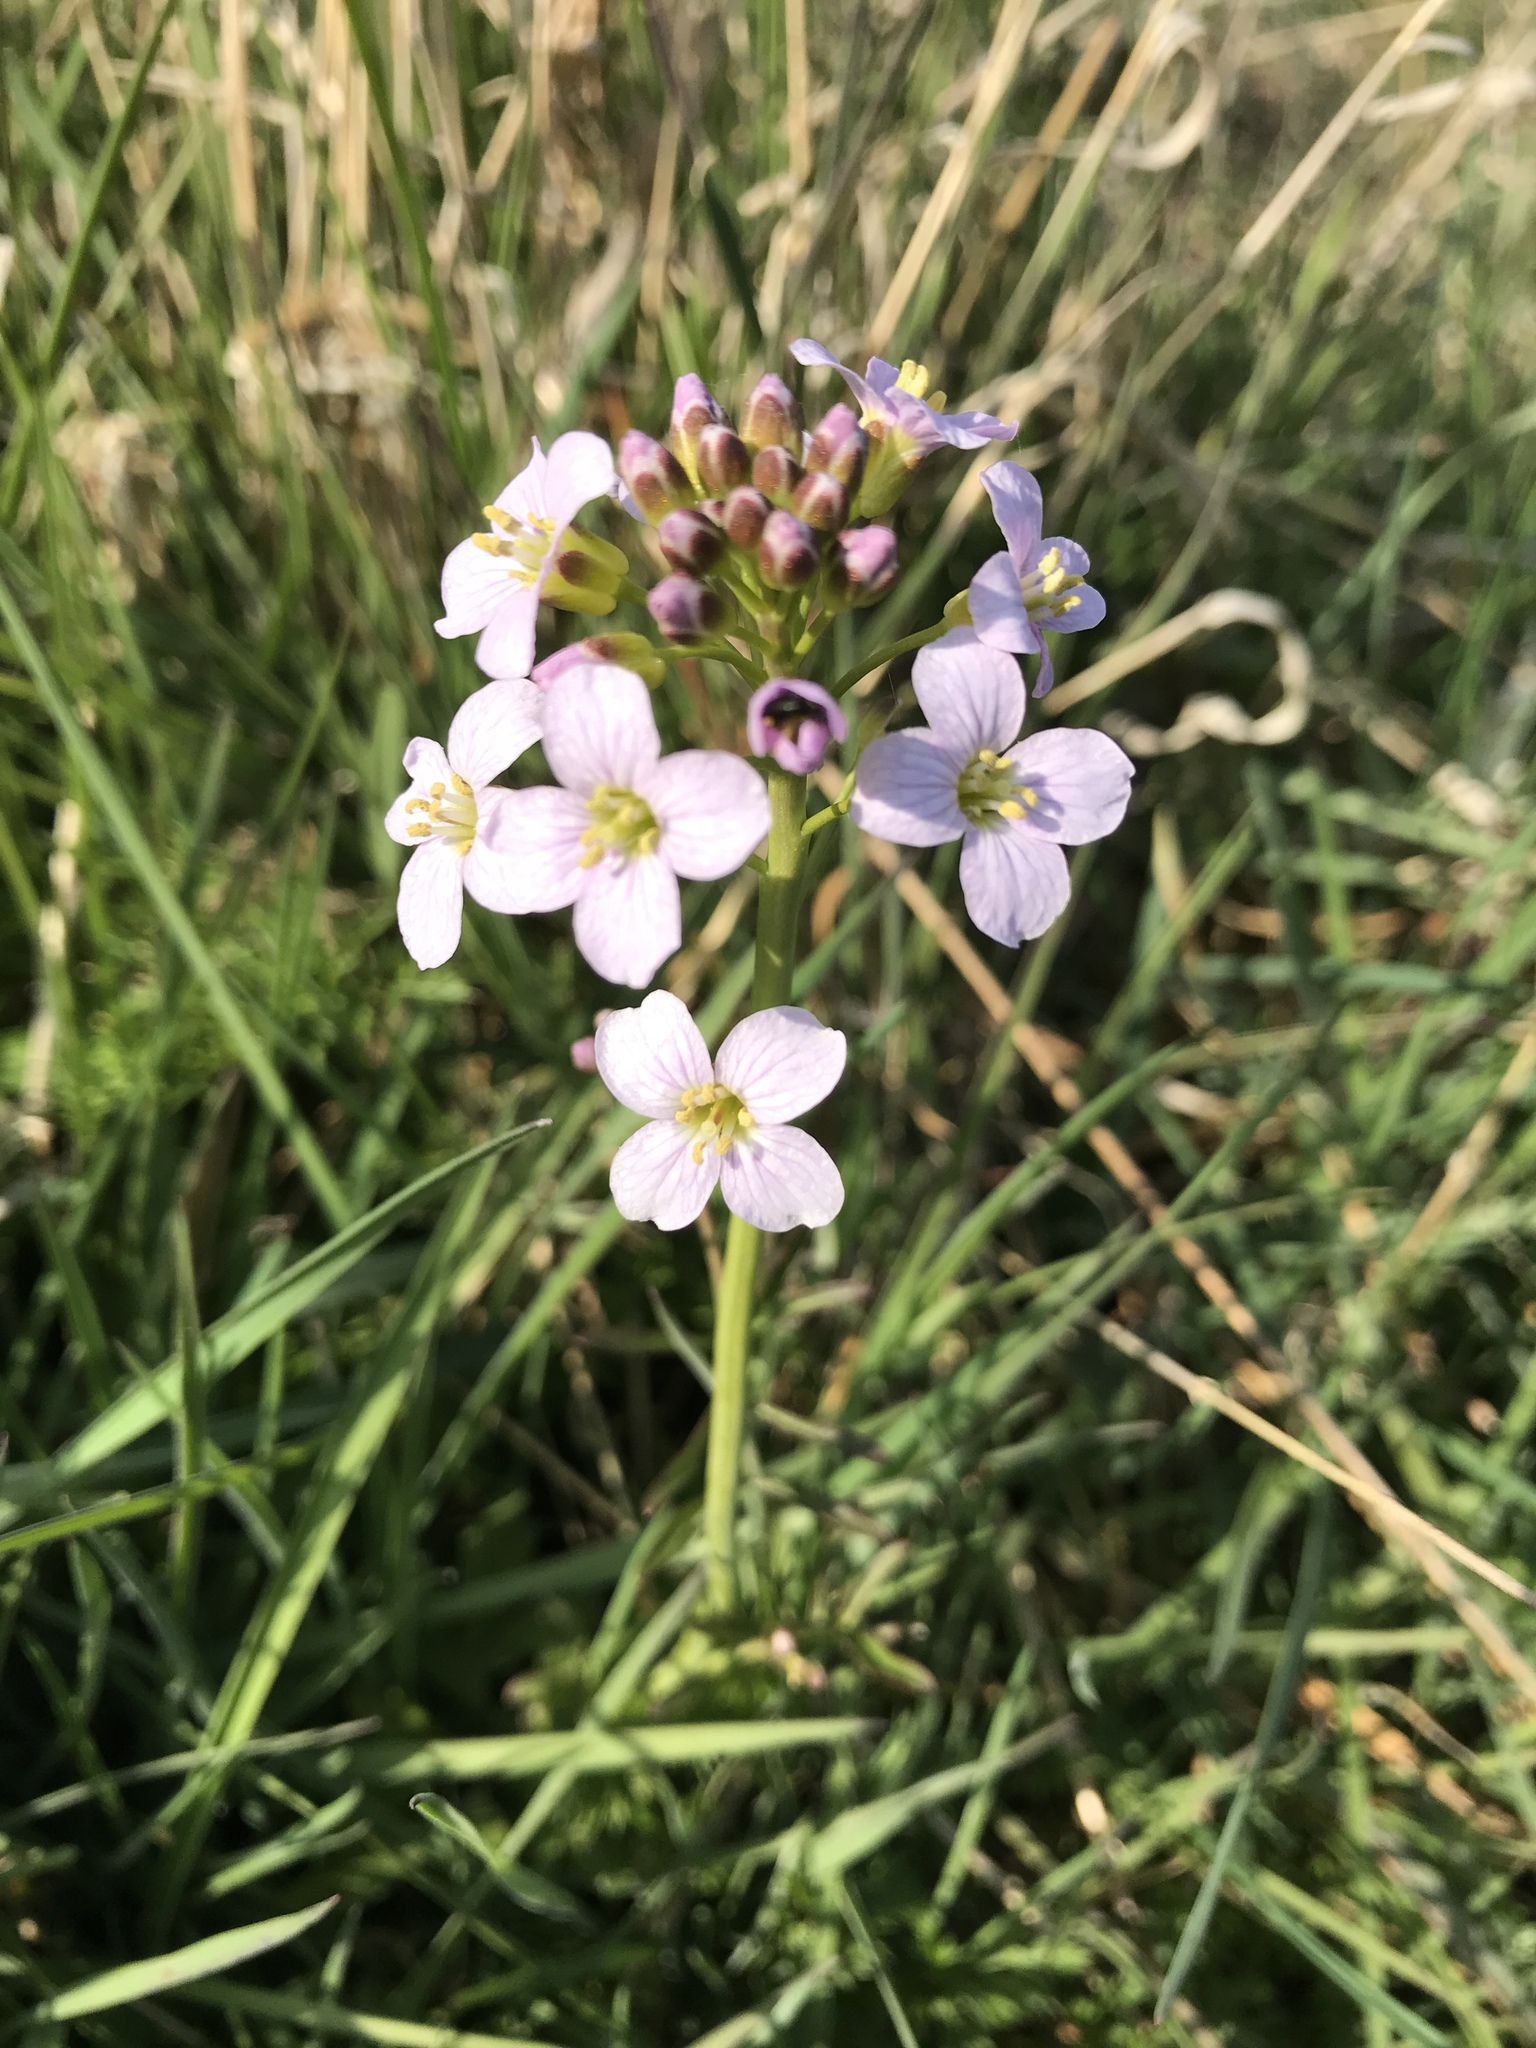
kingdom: Plantae
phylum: Tracheophyta
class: Magnoliopsida
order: Brassicales
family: Brassicaceae
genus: Cardamine
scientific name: Cardamine pratensis
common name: Cuckoo flower
